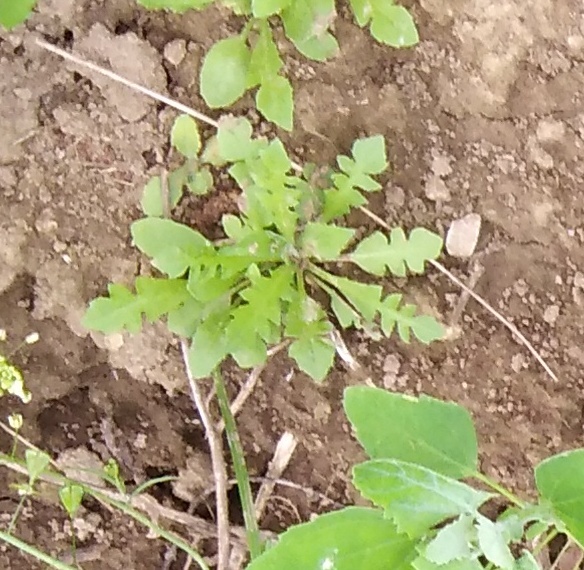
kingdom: Plantae
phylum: Tracheophyta
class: Magnoliopsida
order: Brassicales
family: Brassicaceae
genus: Capsella
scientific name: Capsella bursa-pastoris
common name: Shepherd's purse
